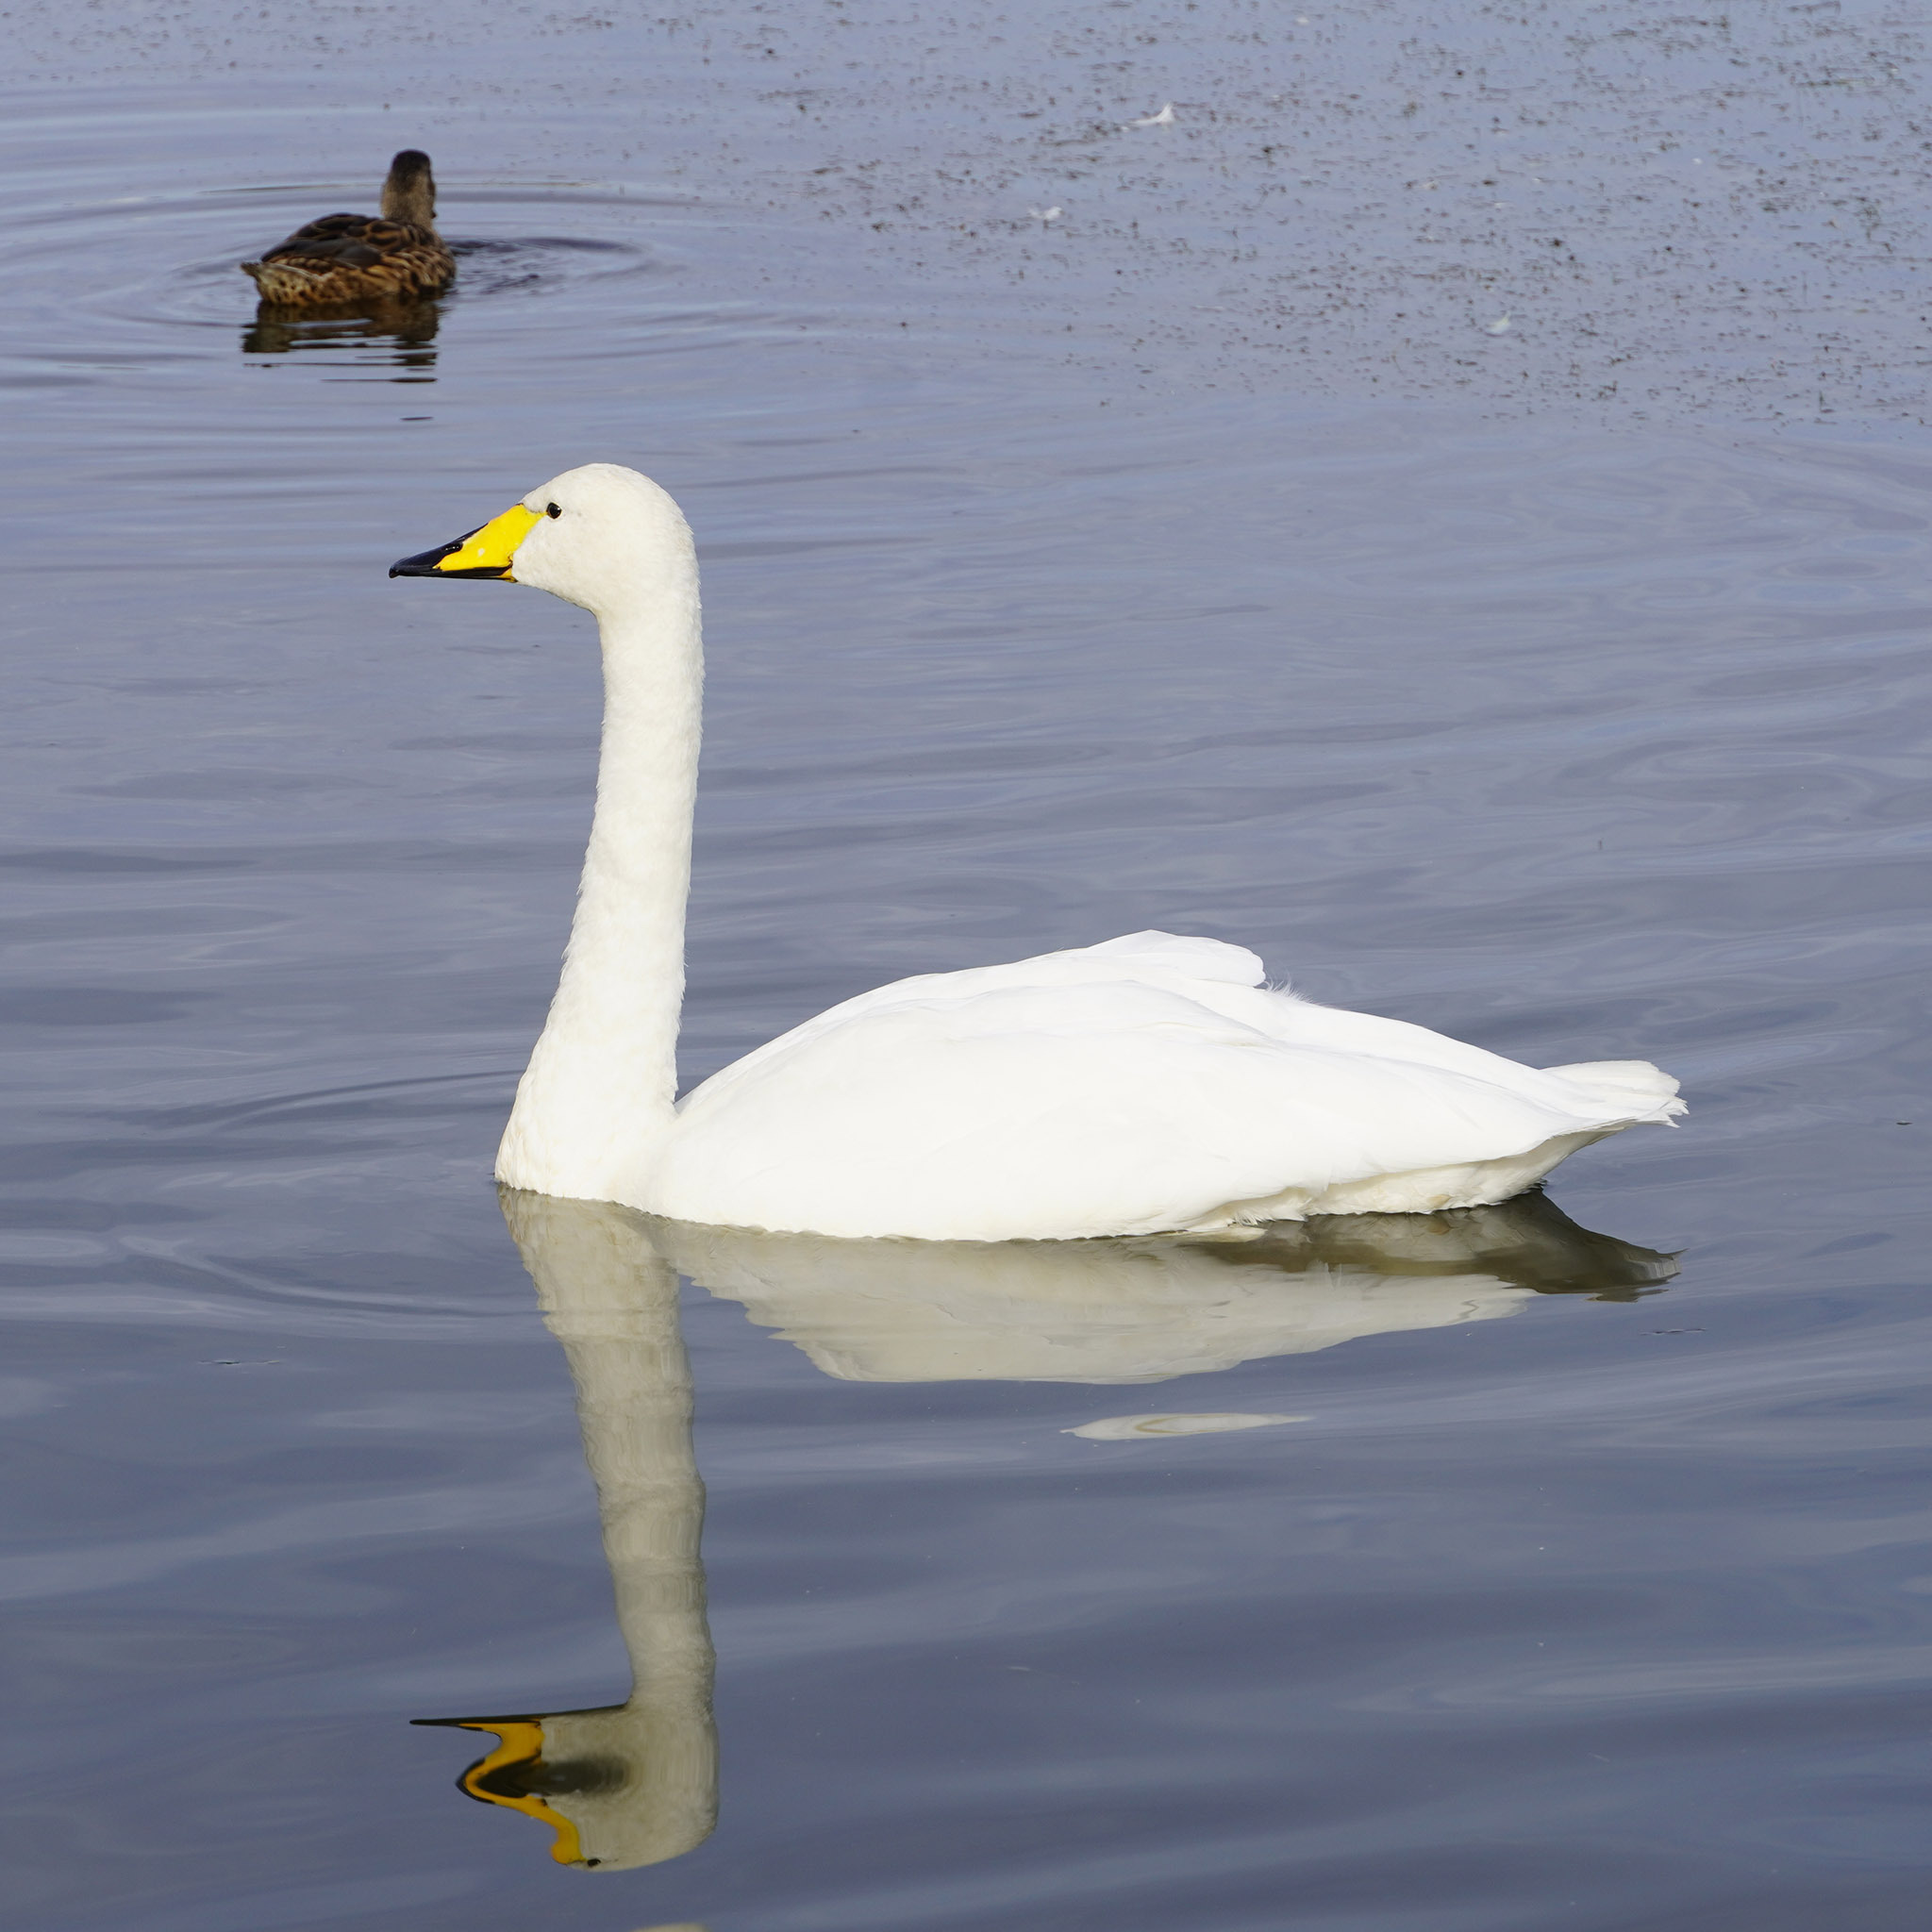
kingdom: Animalia
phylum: Chordata
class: Aves
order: Anseriformes
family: Anatidae
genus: Cygnus
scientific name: Cygnus cygnus
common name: Whooper swan
